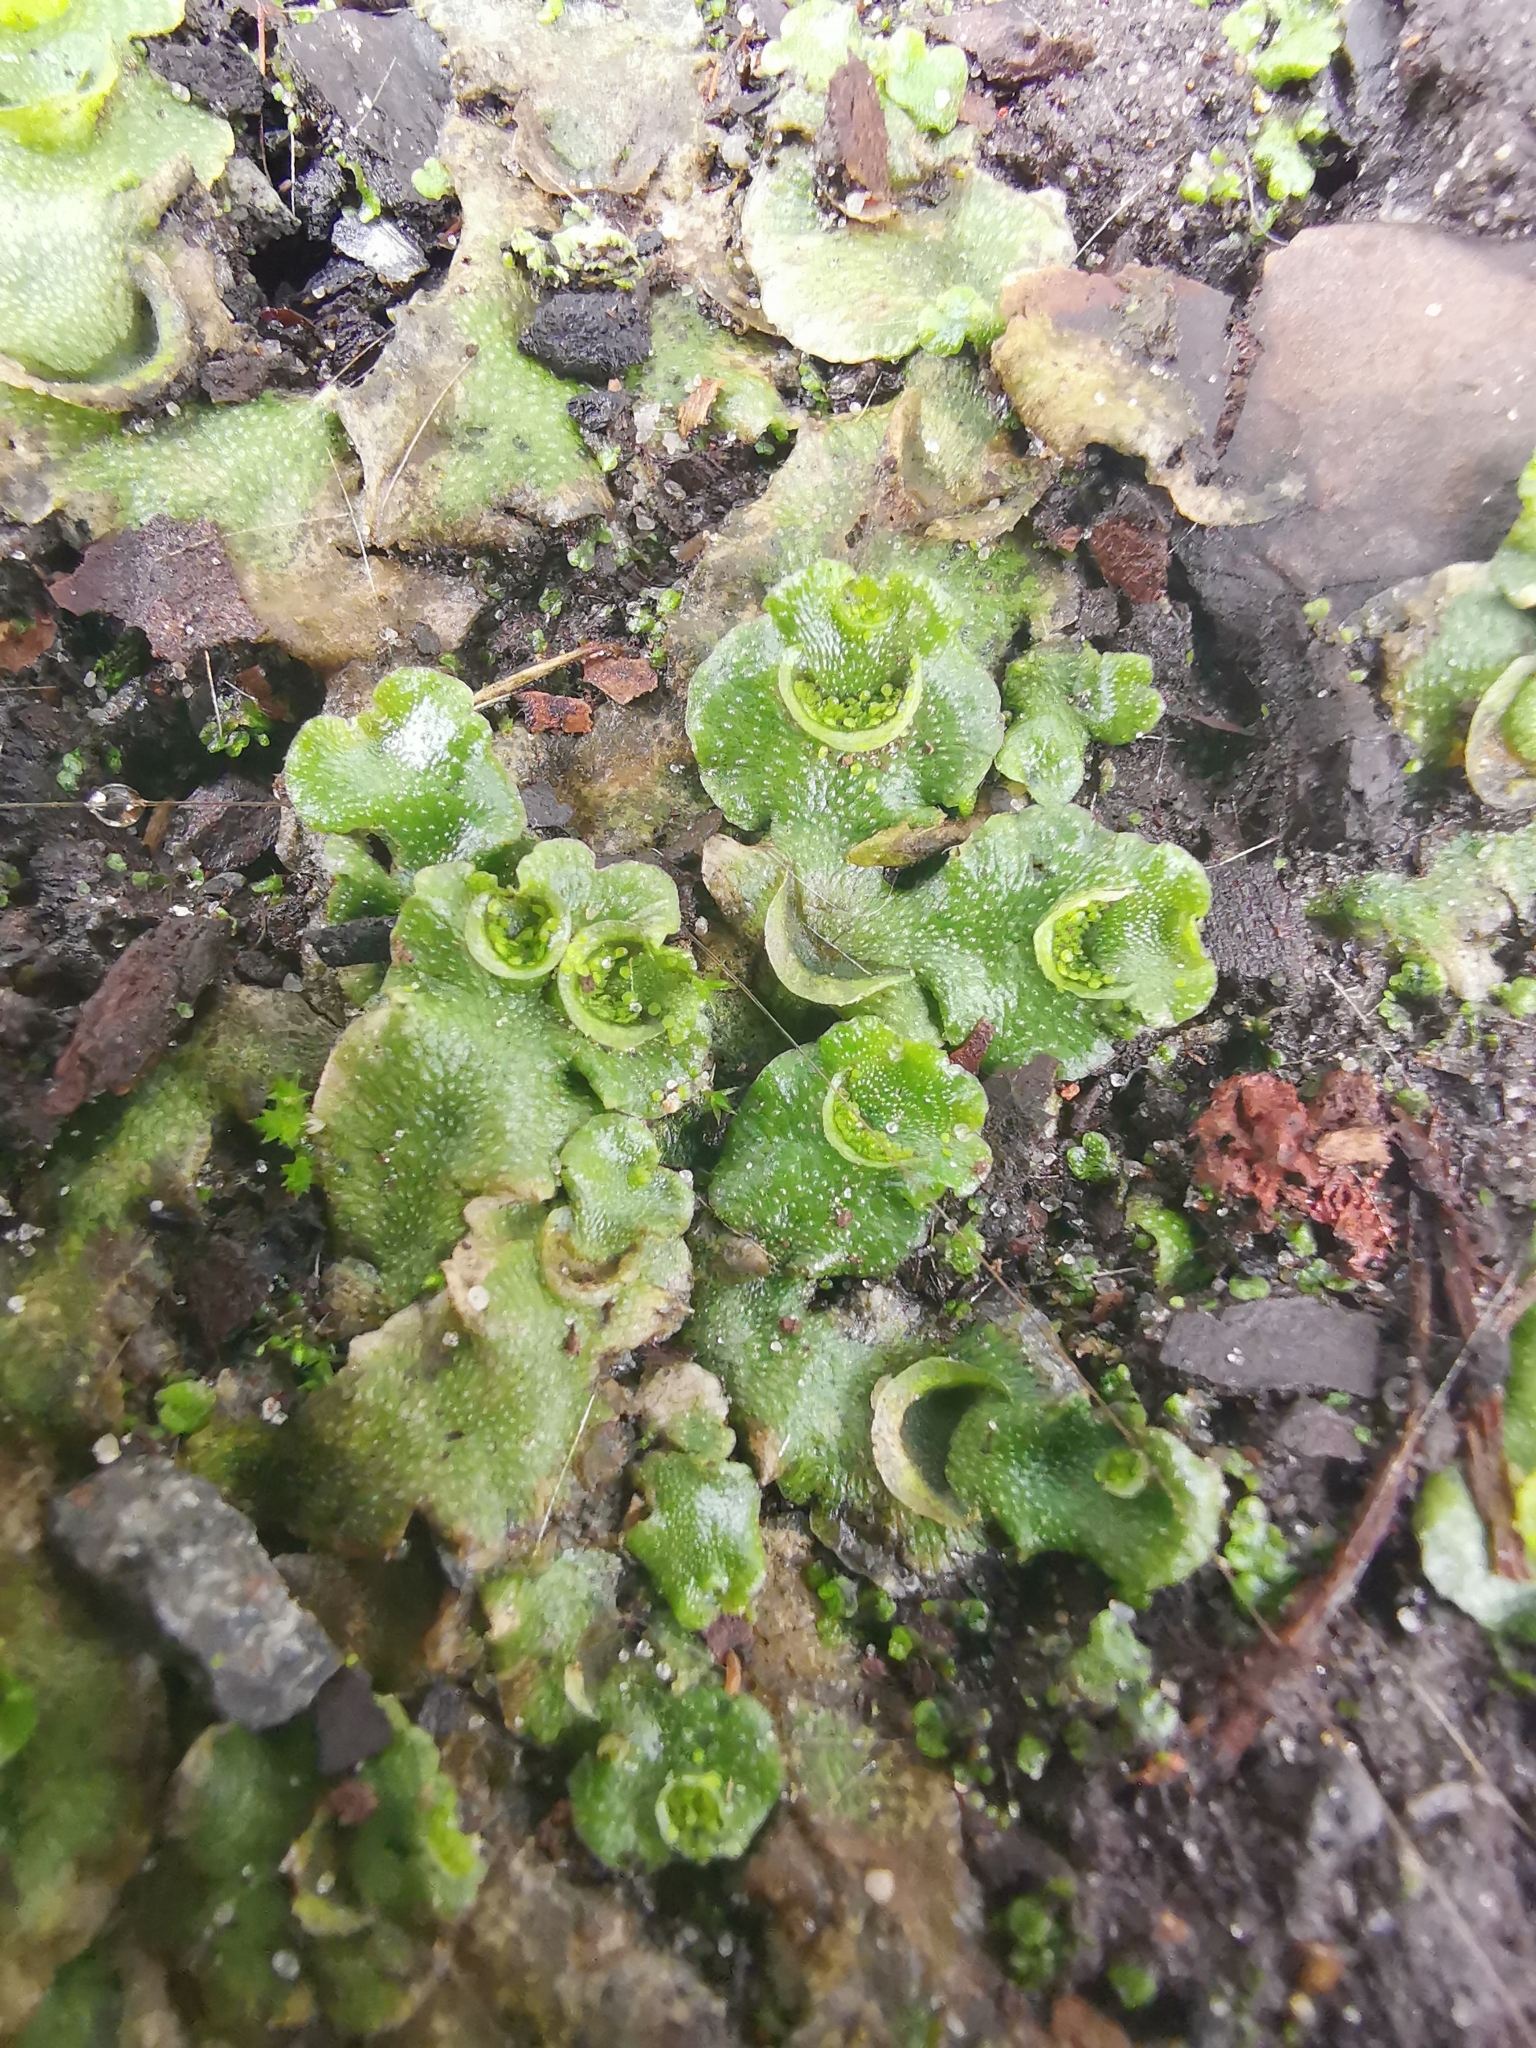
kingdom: Plantae
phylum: Marchantiophyta
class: Marchantiopsida
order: Lunulariales
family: Lunulariaceae
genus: Lunularia
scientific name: Lunularia cruciata
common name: Crescent-cup liverwort
